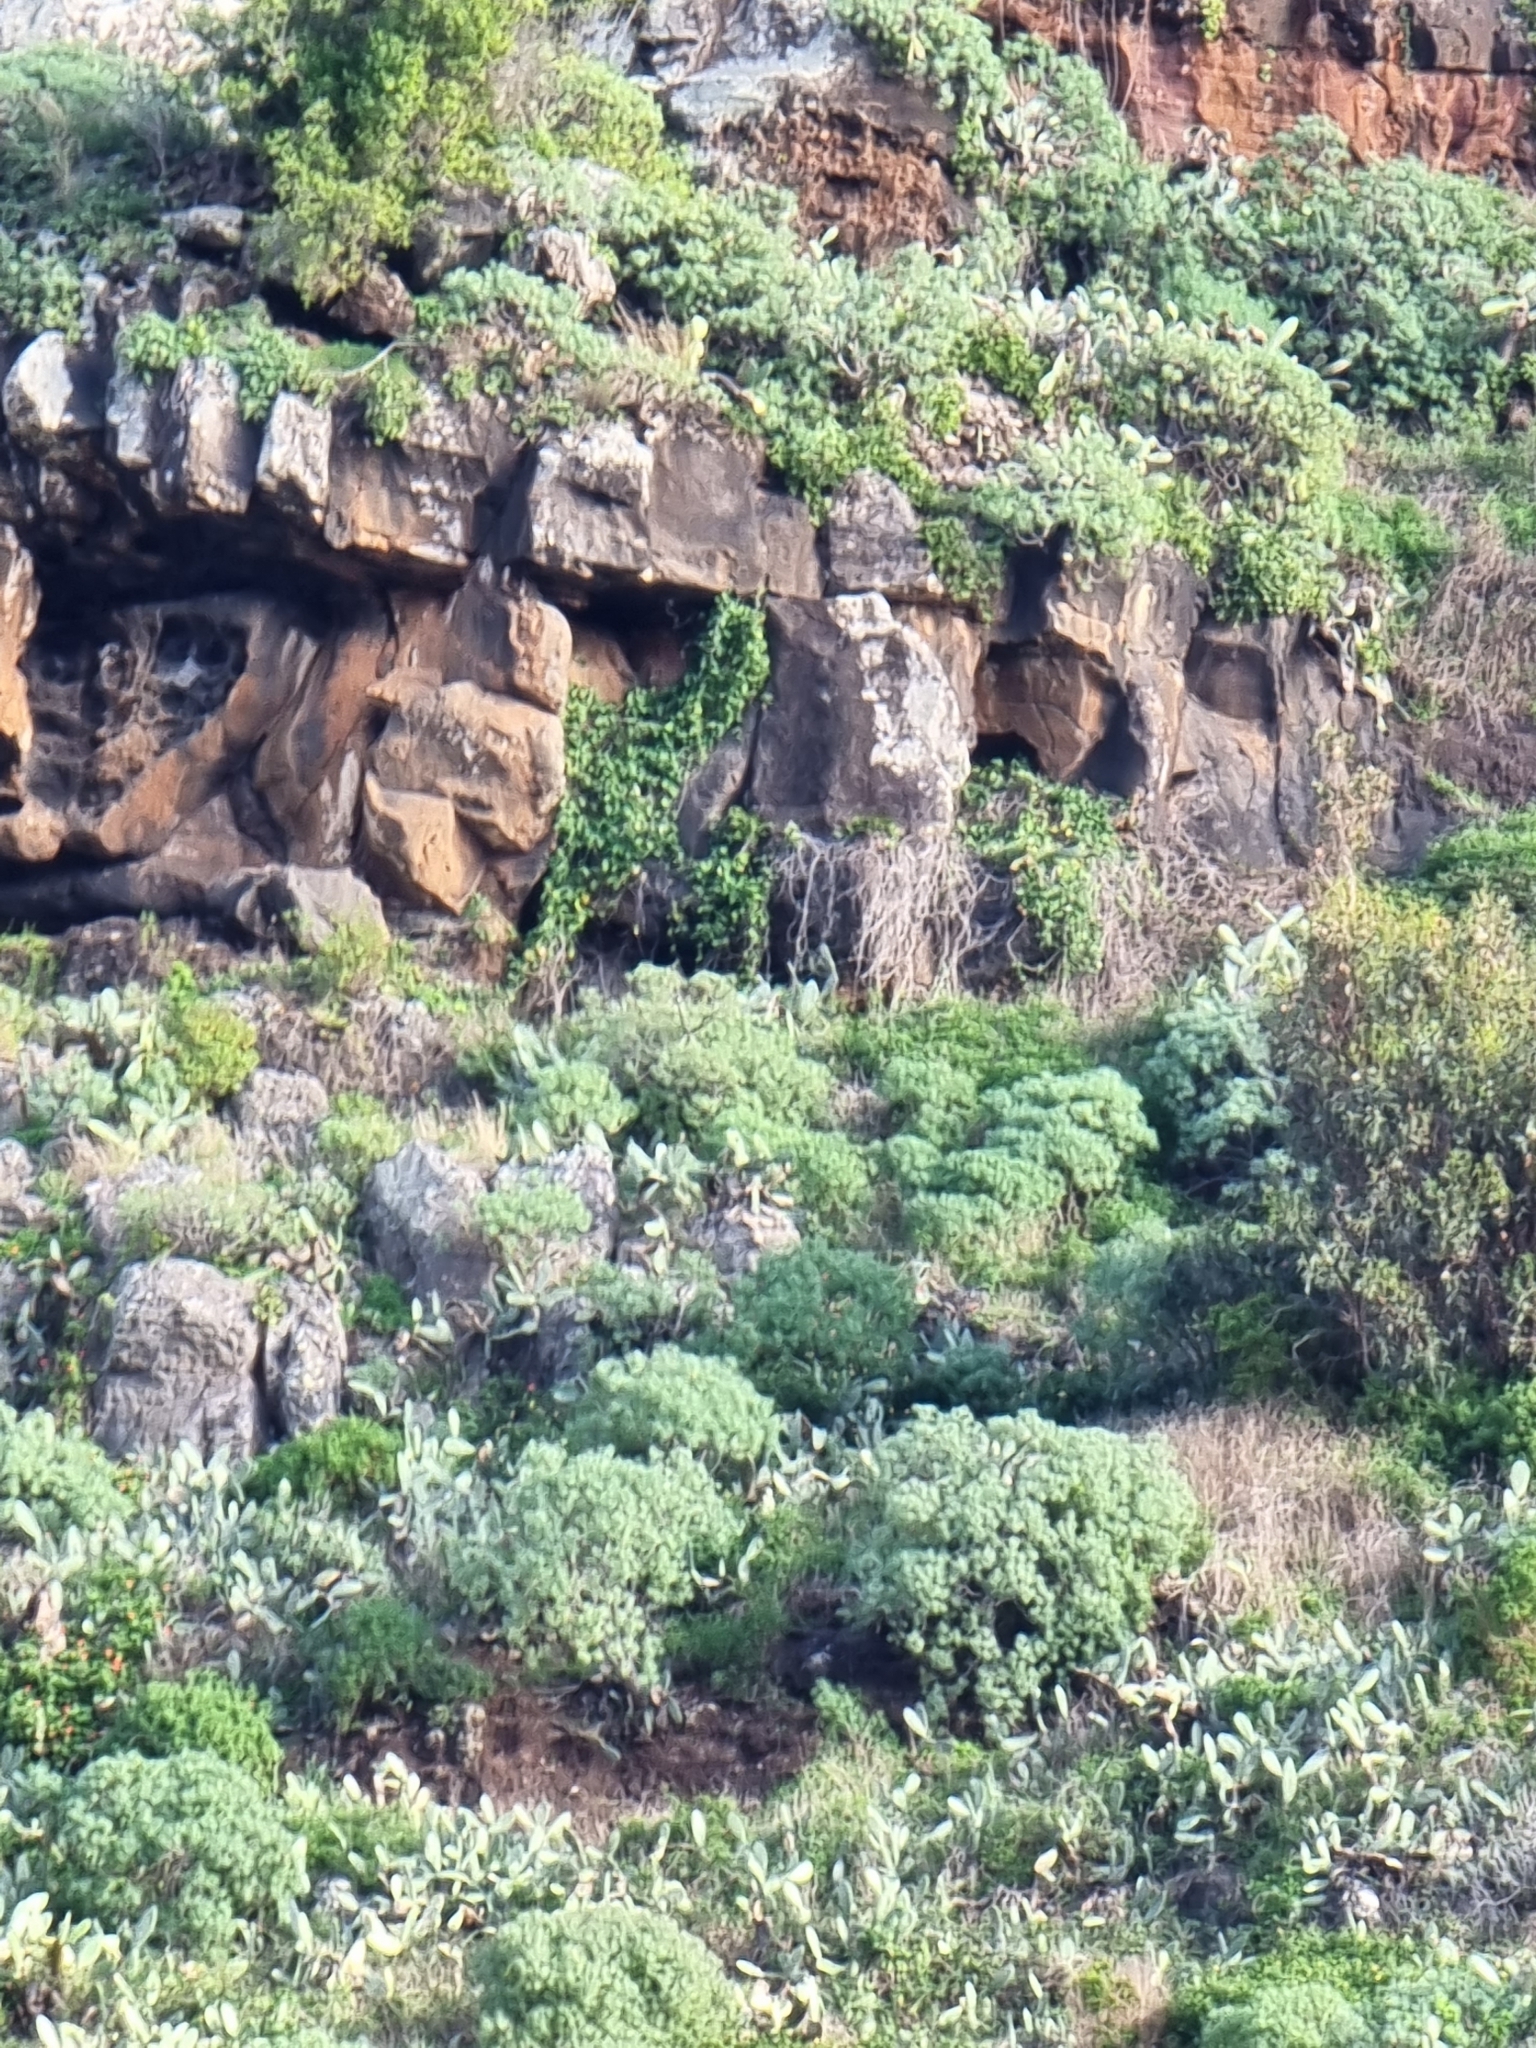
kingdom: Plantae
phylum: Tracheophyta
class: Magnoliopsida
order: Malpighiales
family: Euphorbiaceae
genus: Euphorbia
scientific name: Euphorbia piscatoria
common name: Fish-stunning spurge
